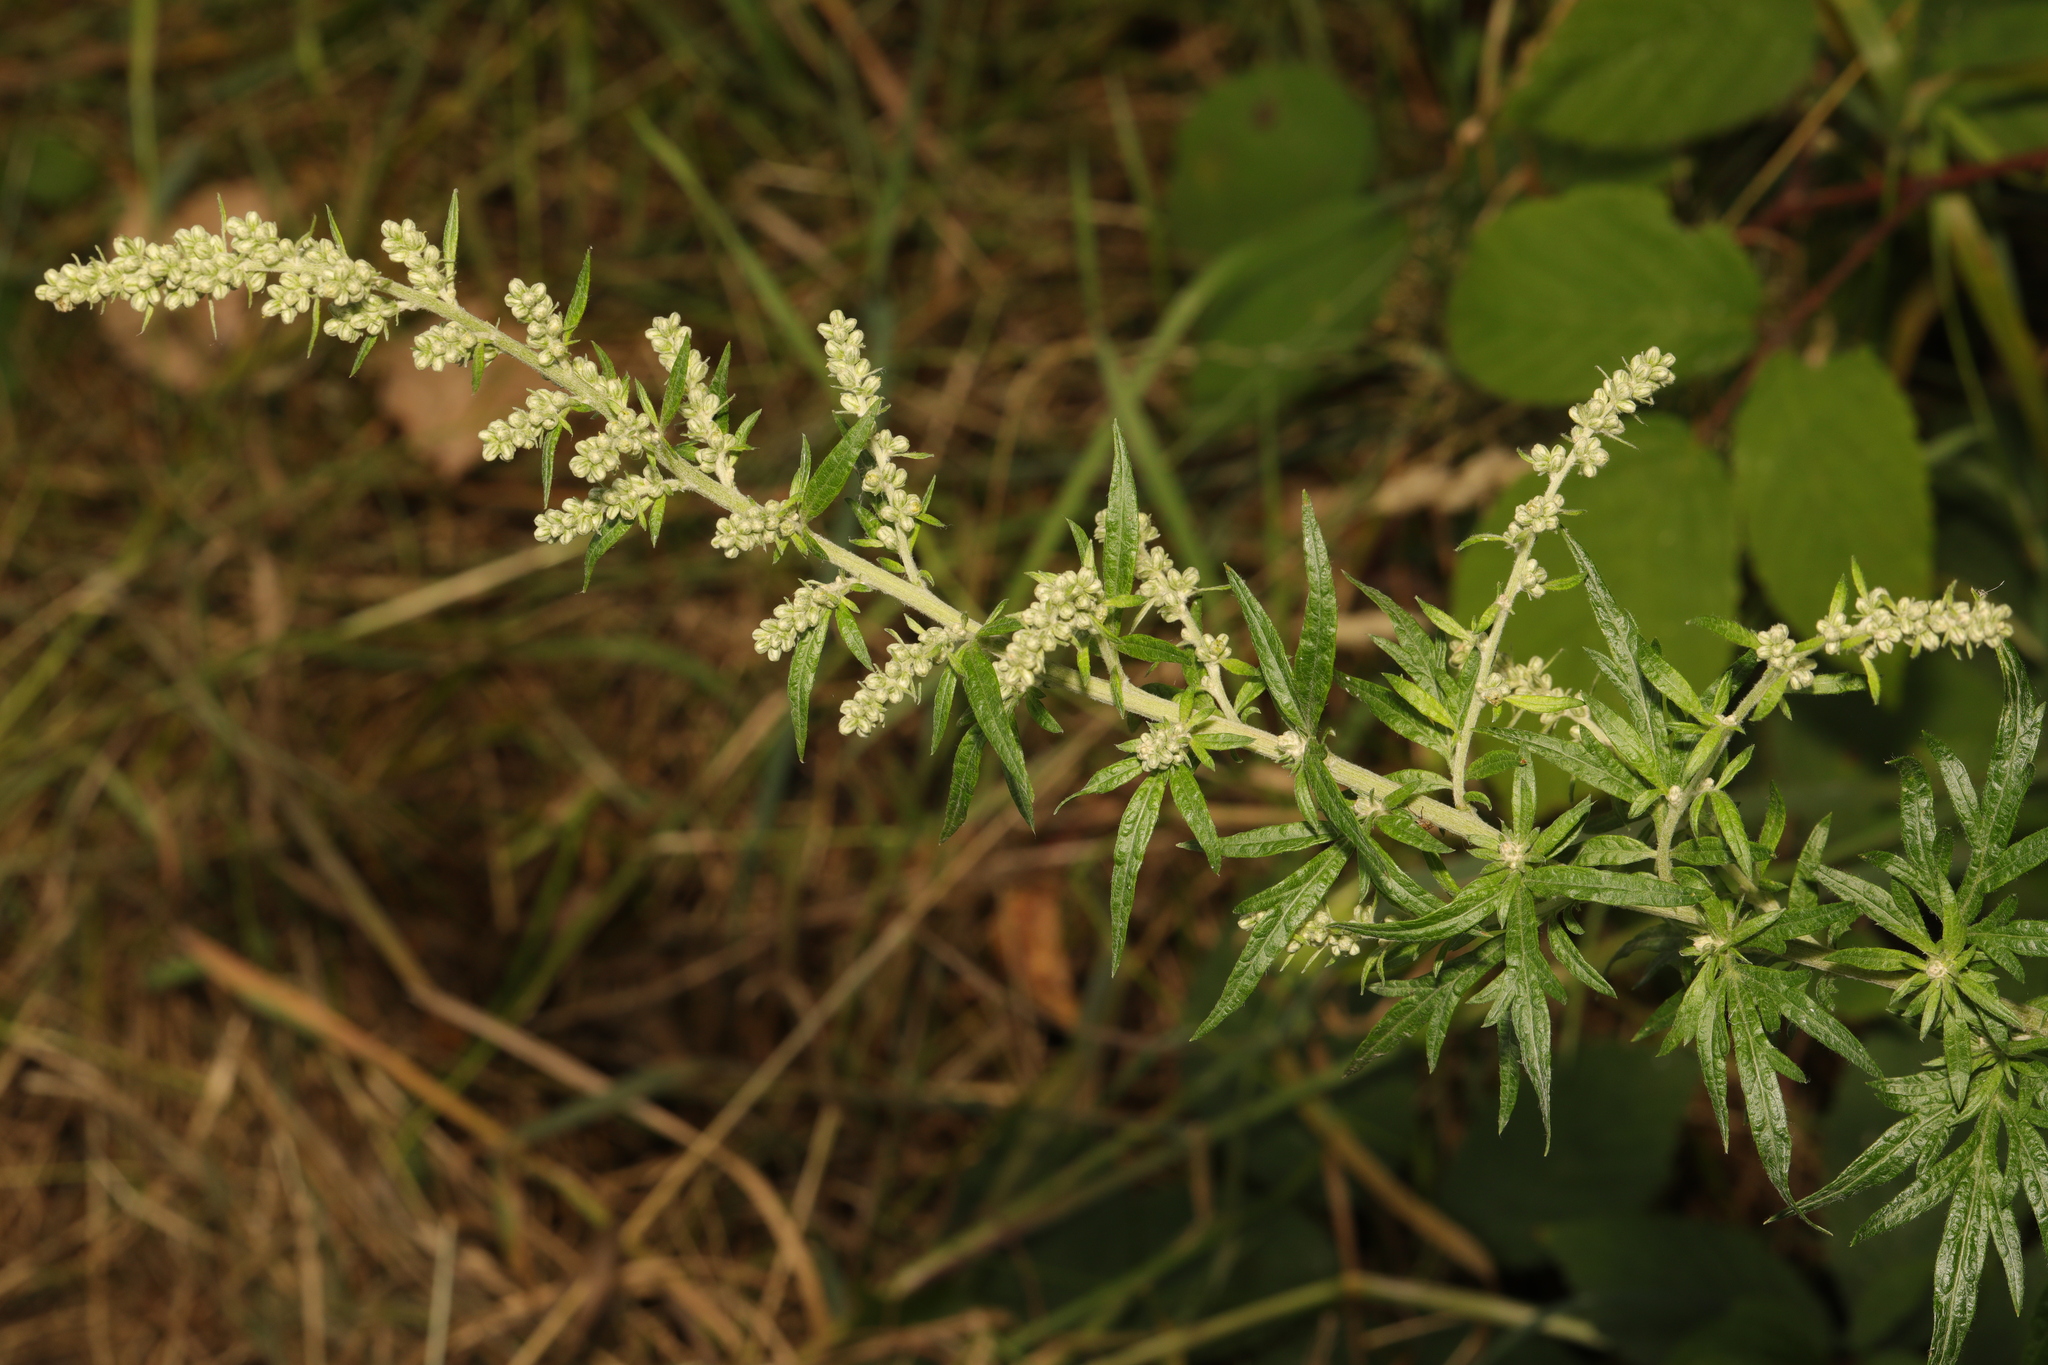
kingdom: Plantae
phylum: Tracheophyta
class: Magnoliopsida
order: Asterales
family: Asteraceae
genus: Artemisia
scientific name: Artemisia vulgaris
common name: Mugwort
